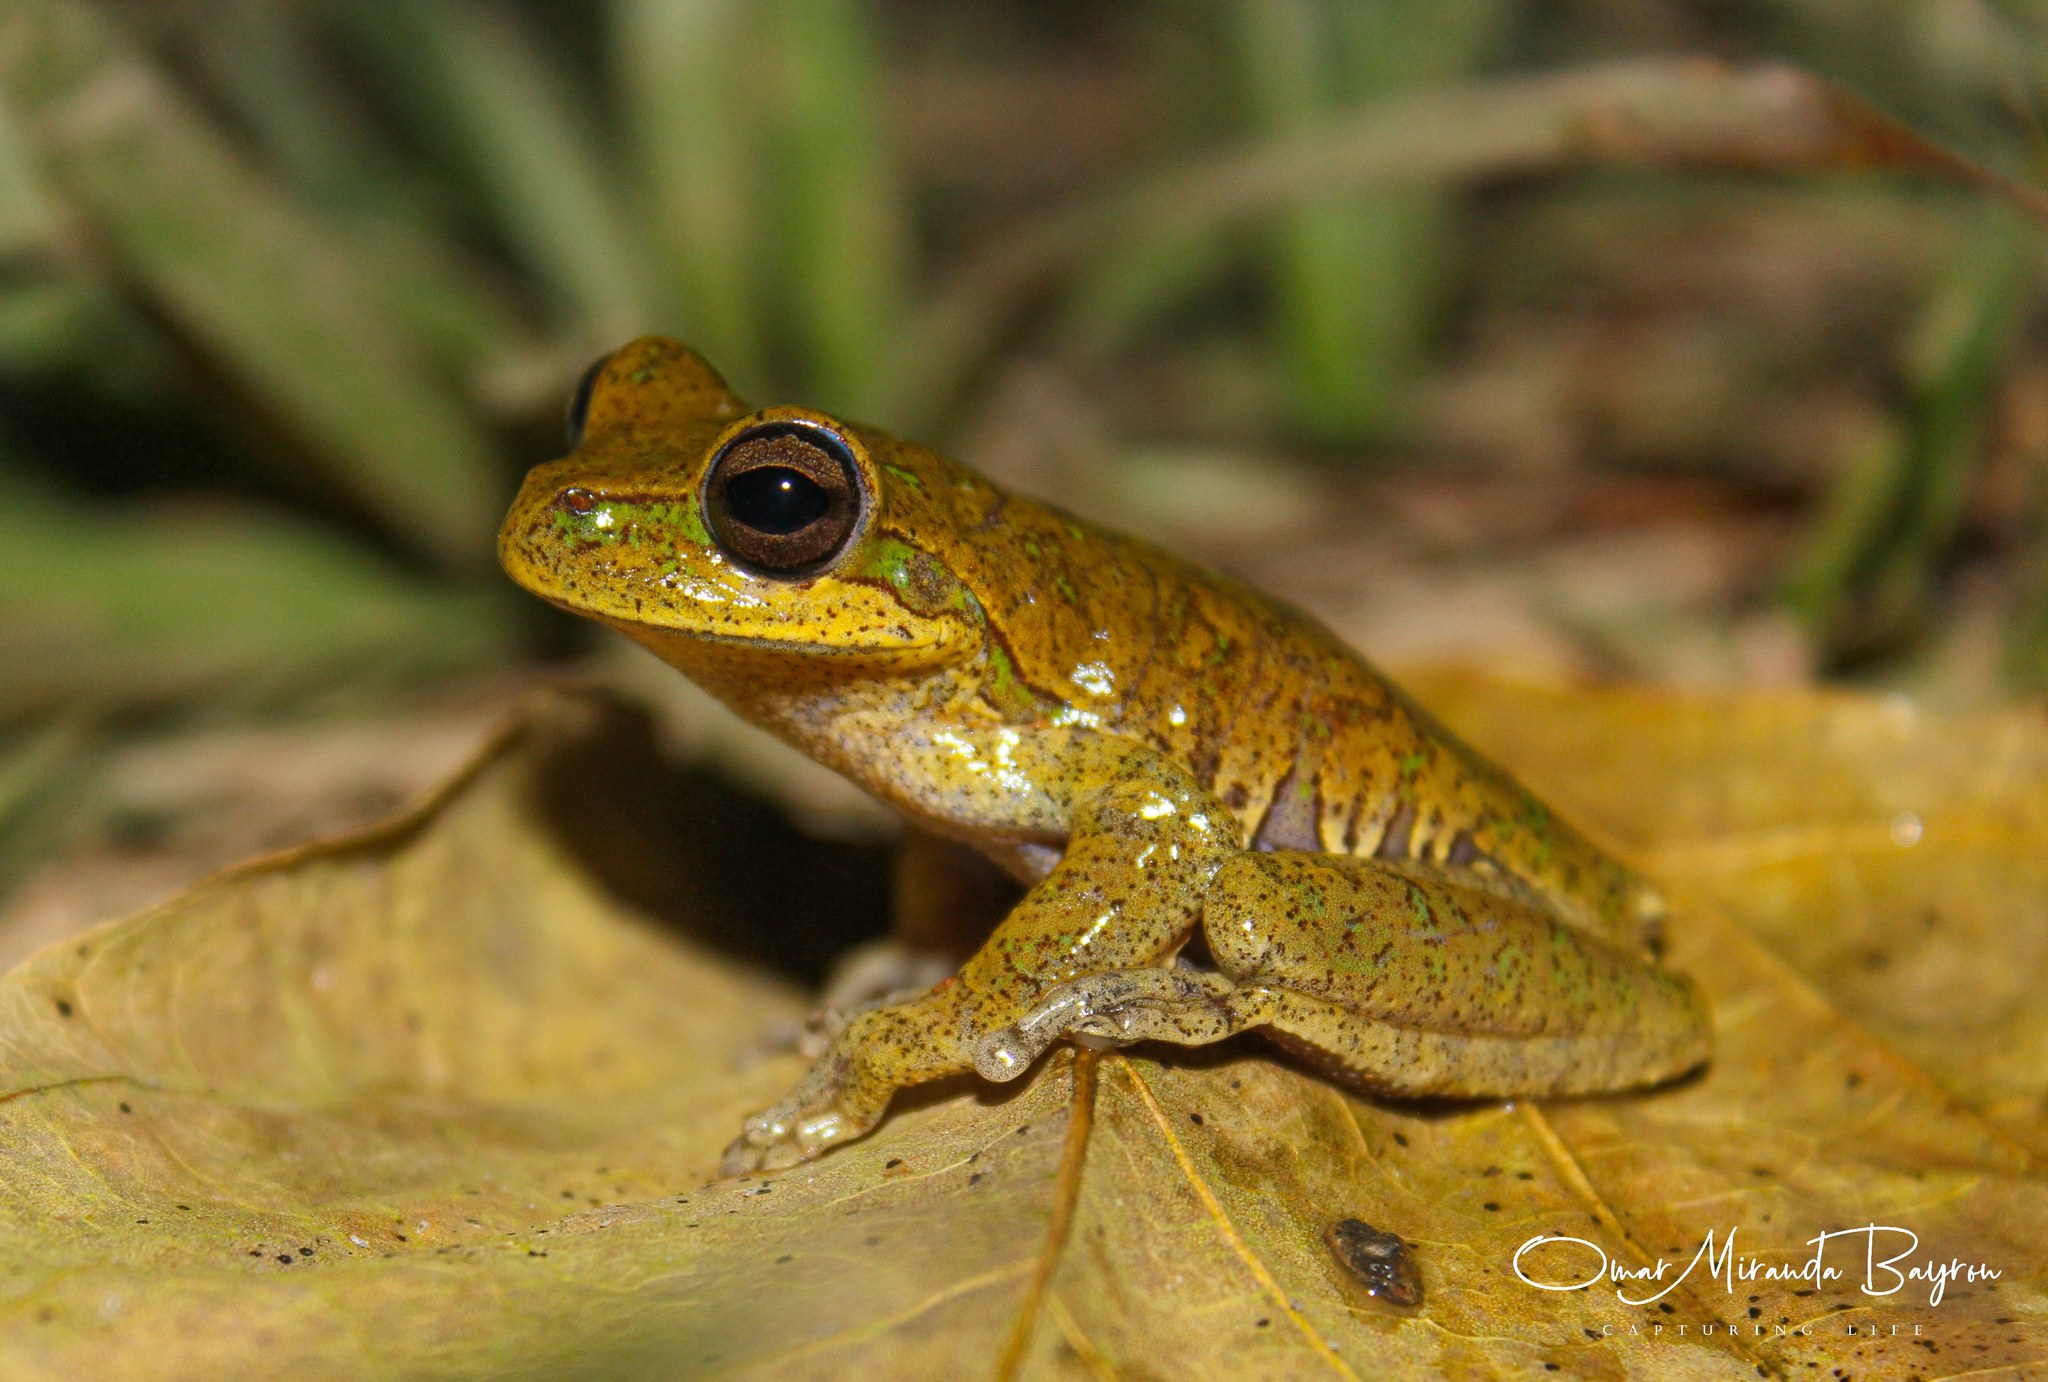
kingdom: Animalia
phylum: Chordata
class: Amphibia
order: Anura
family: Hylidae
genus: Boana
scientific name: Boana balzani
